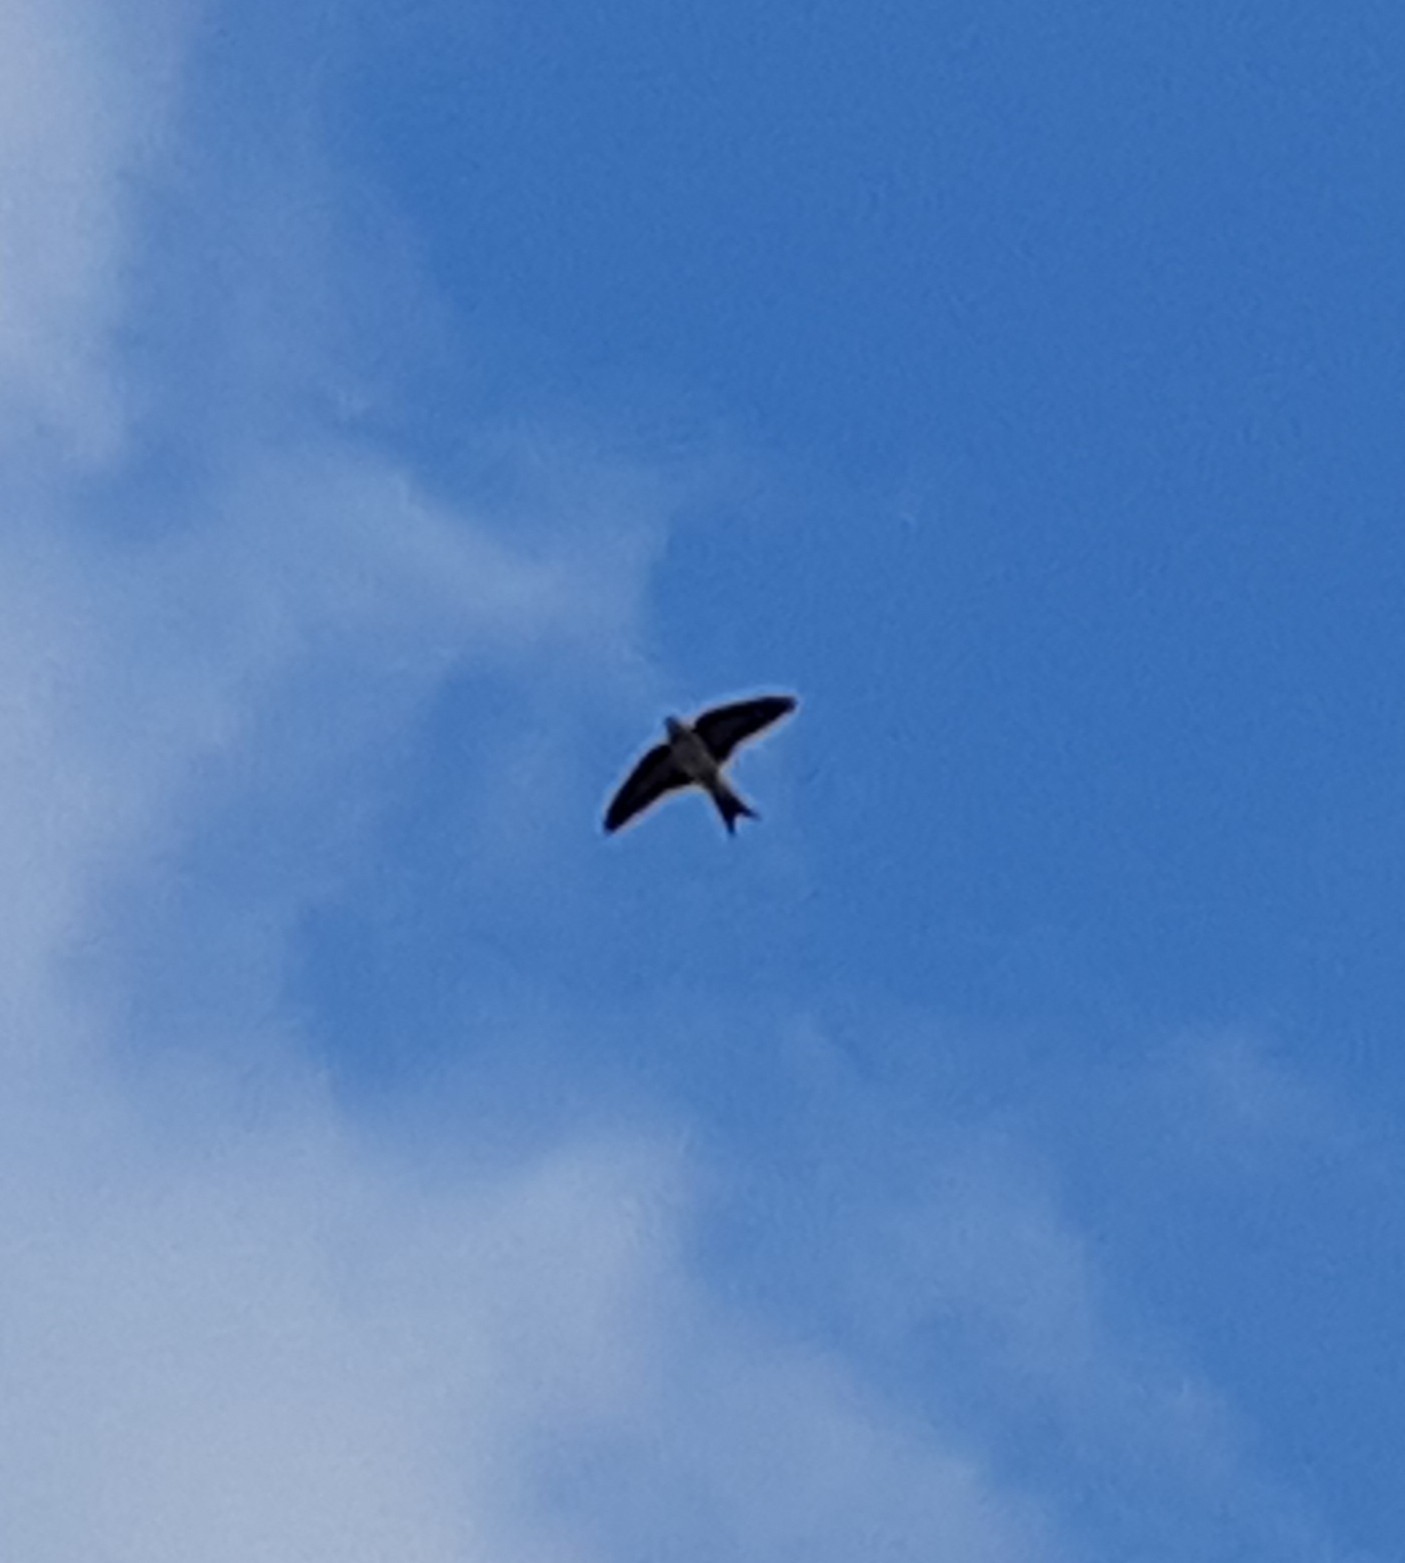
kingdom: Animalia
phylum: Chordata
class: Aves
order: Passeriformes
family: Hirundinidae
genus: Delichon
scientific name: Delichon urbicum
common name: Common house martin
